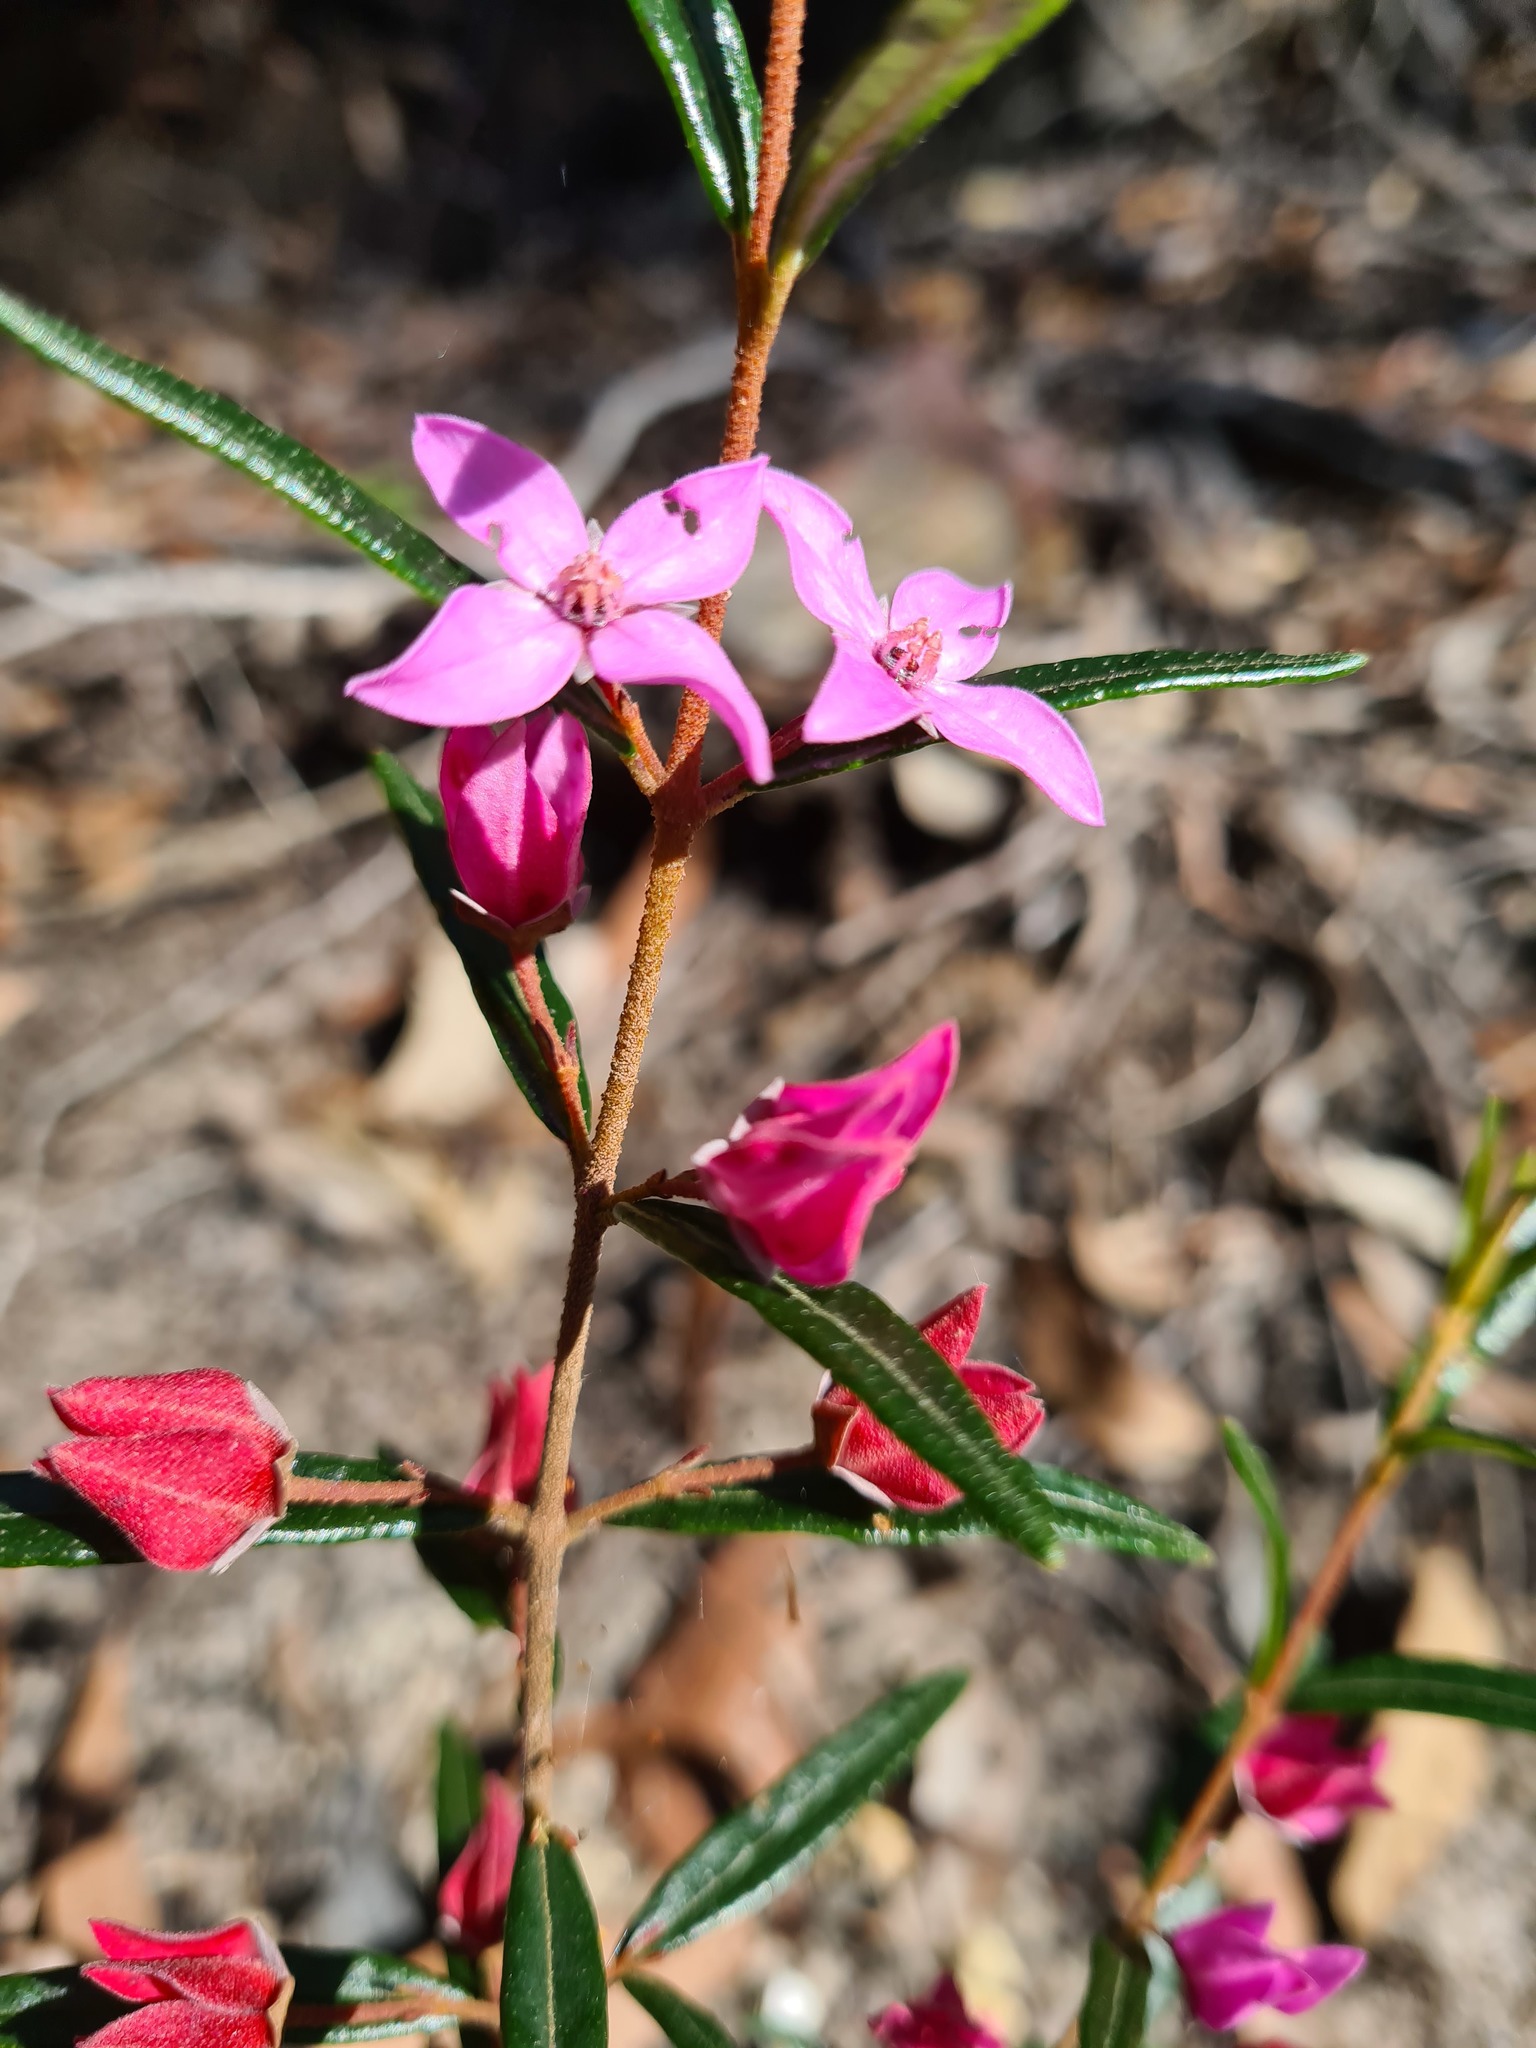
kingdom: Plantae
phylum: Tracheophyta
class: Magnoliopsida
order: Sapindales
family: Rutaceae
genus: Boronia
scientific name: Boronia ledifolia
